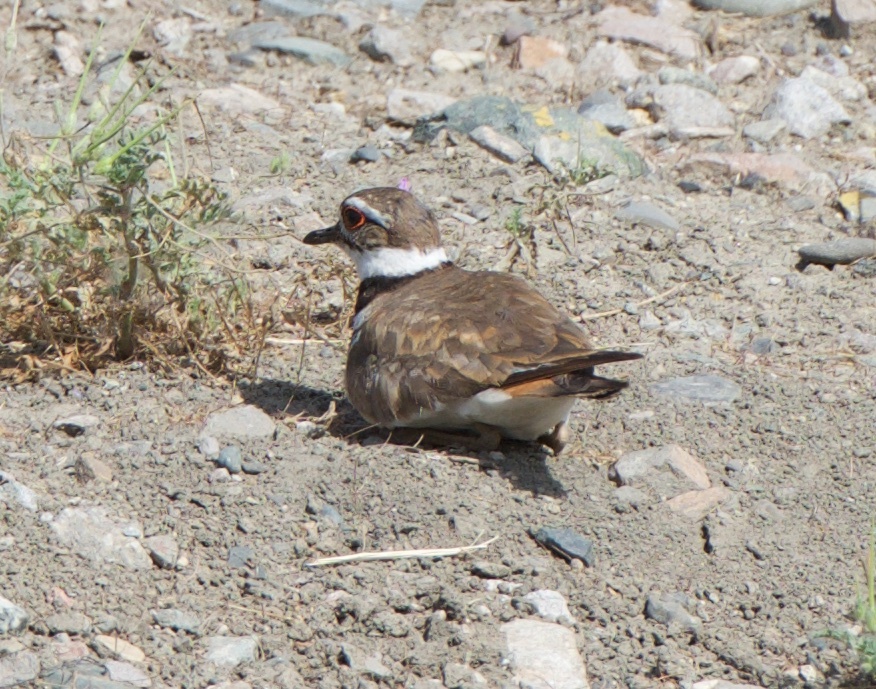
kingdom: Animalia
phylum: Chordata
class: Aves
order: Charadriiformes
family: Charadriidae
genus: Charadrius
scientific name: Charadrius vociferus
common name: Killdeer
